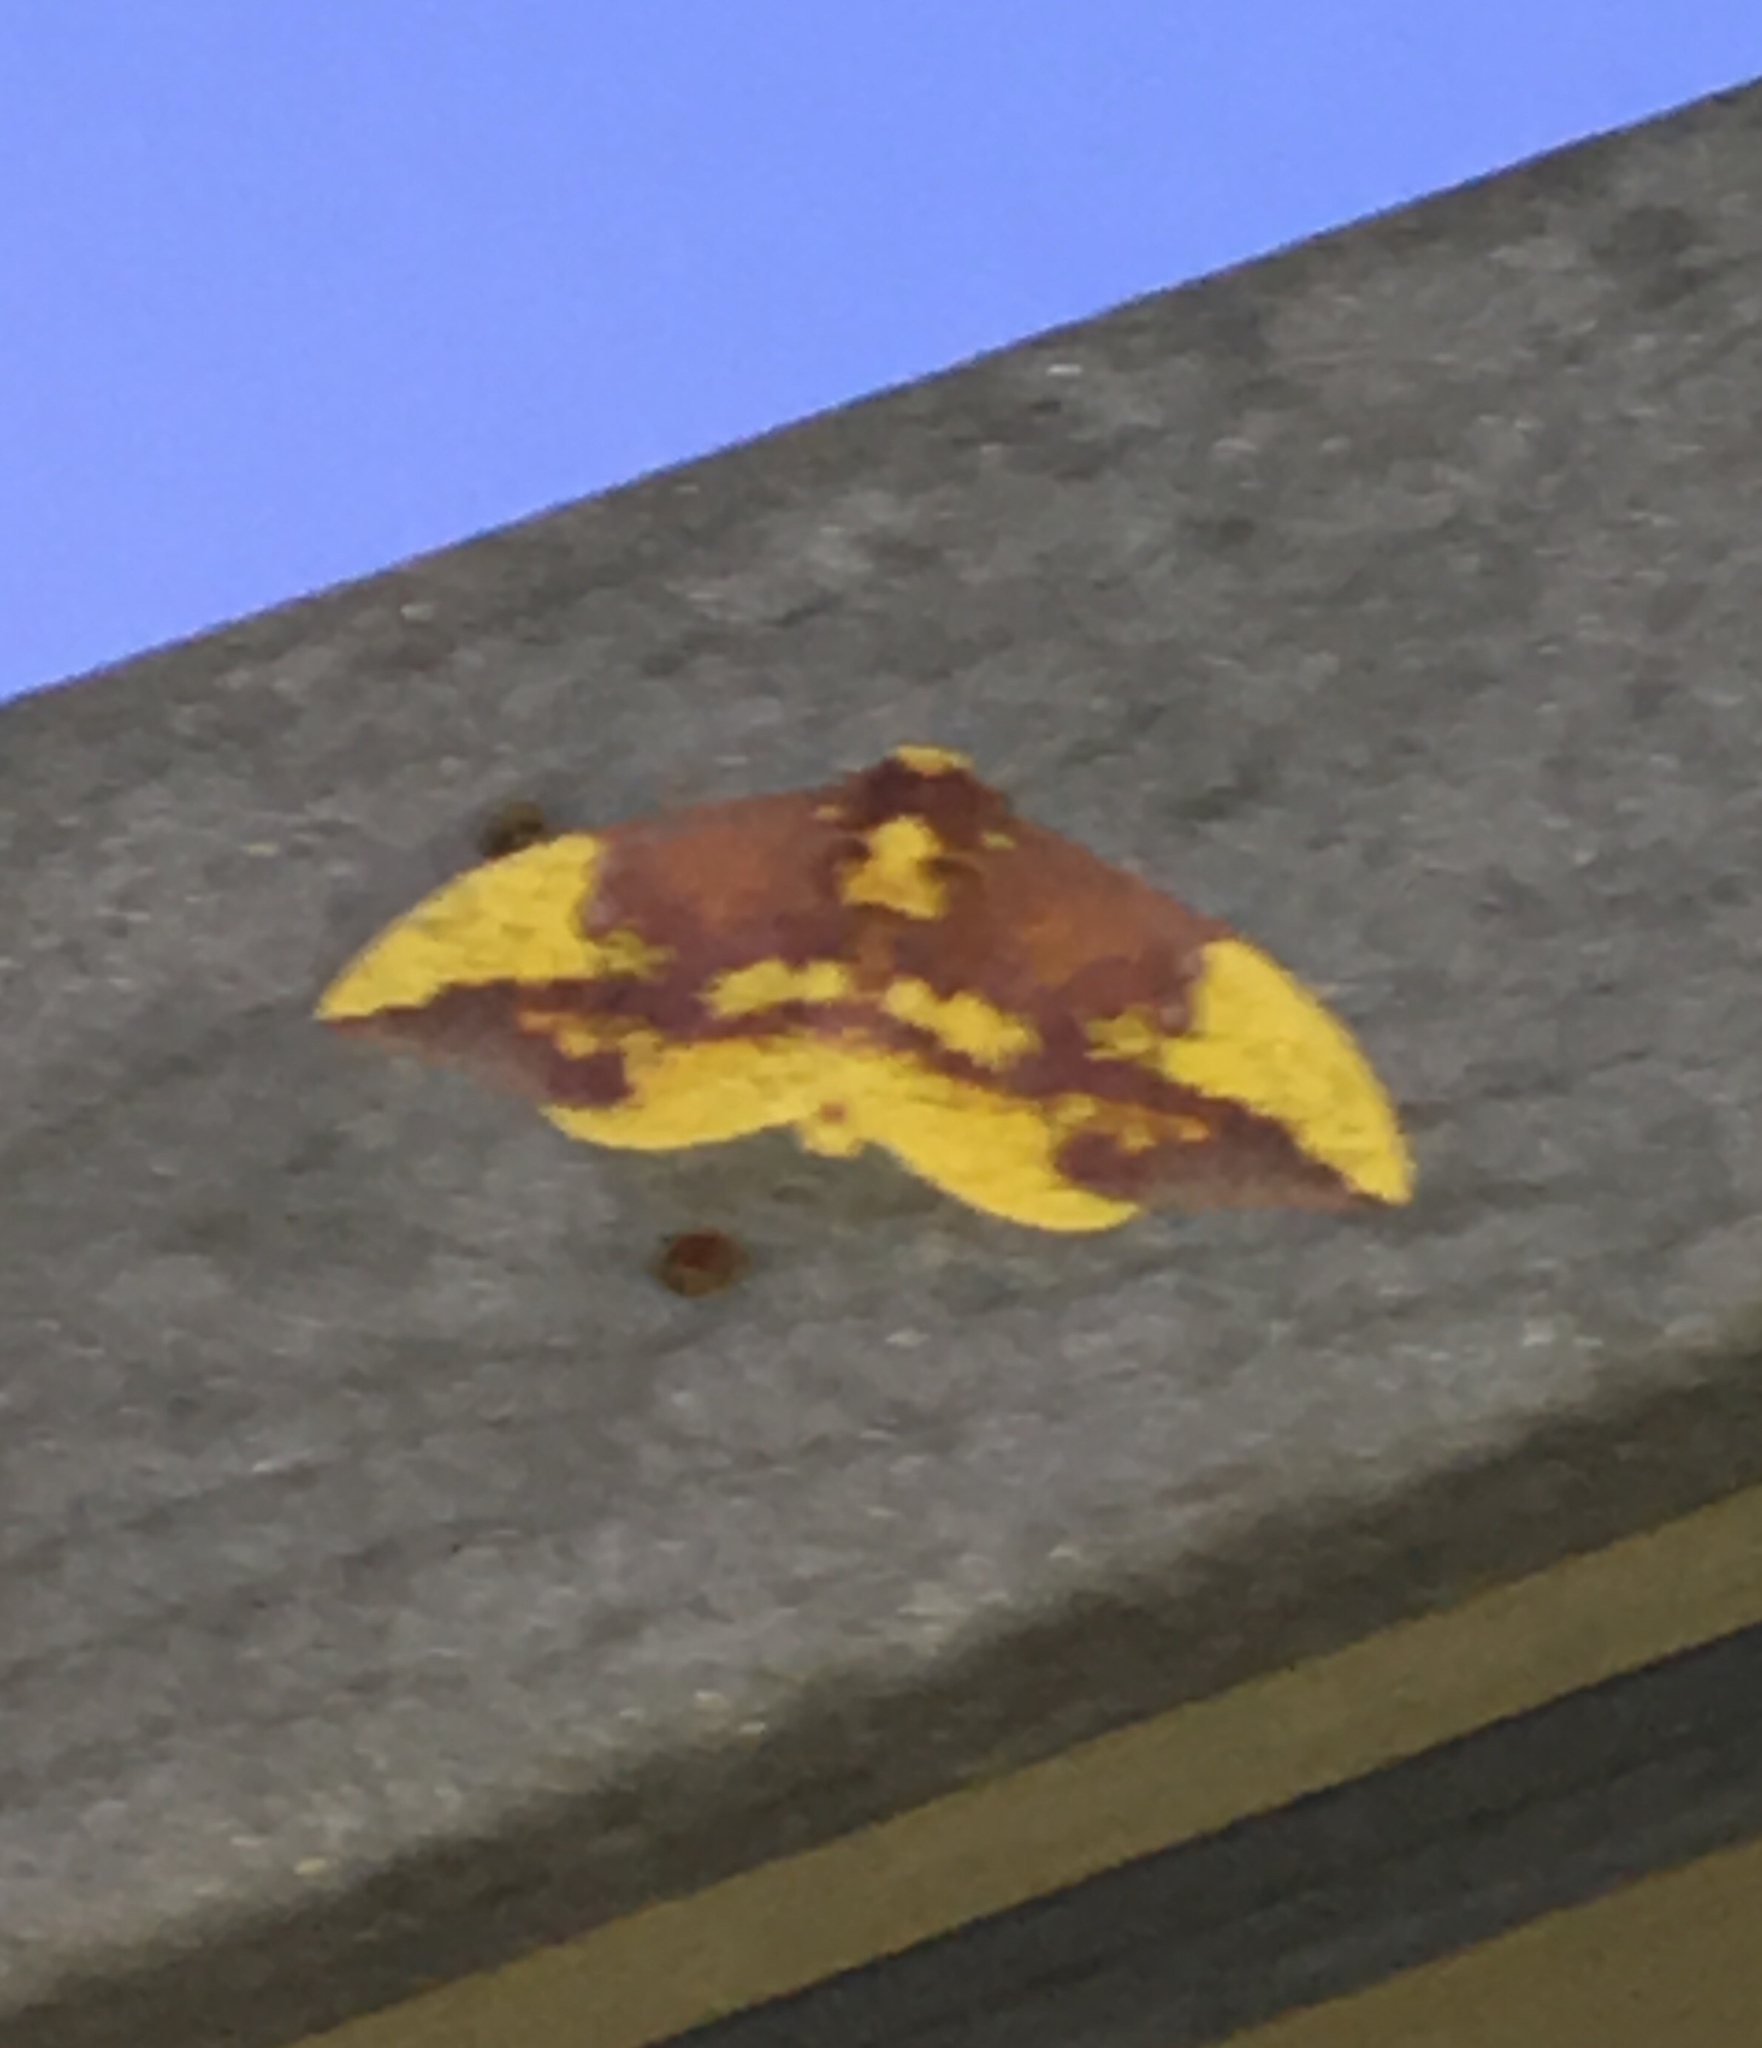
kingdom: Animalia
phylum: Arthropoda
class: Insecta
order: Lepidoptera
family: Saturniidae
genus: Eacles
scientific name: Eacles imperialis
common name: Imperial moth
